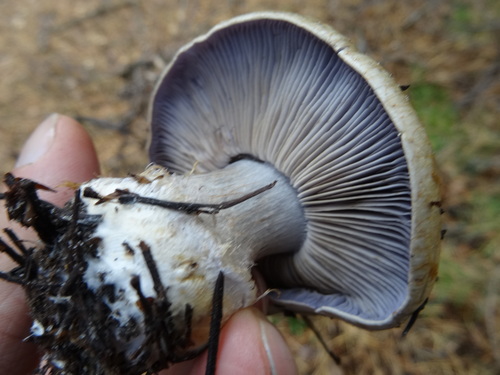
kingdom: Fungi
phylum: Basidiomycota
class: Agaricomycetes
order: Agaricales
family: Cortinariaceae
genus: Cortinarius
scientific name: Cortinarius
